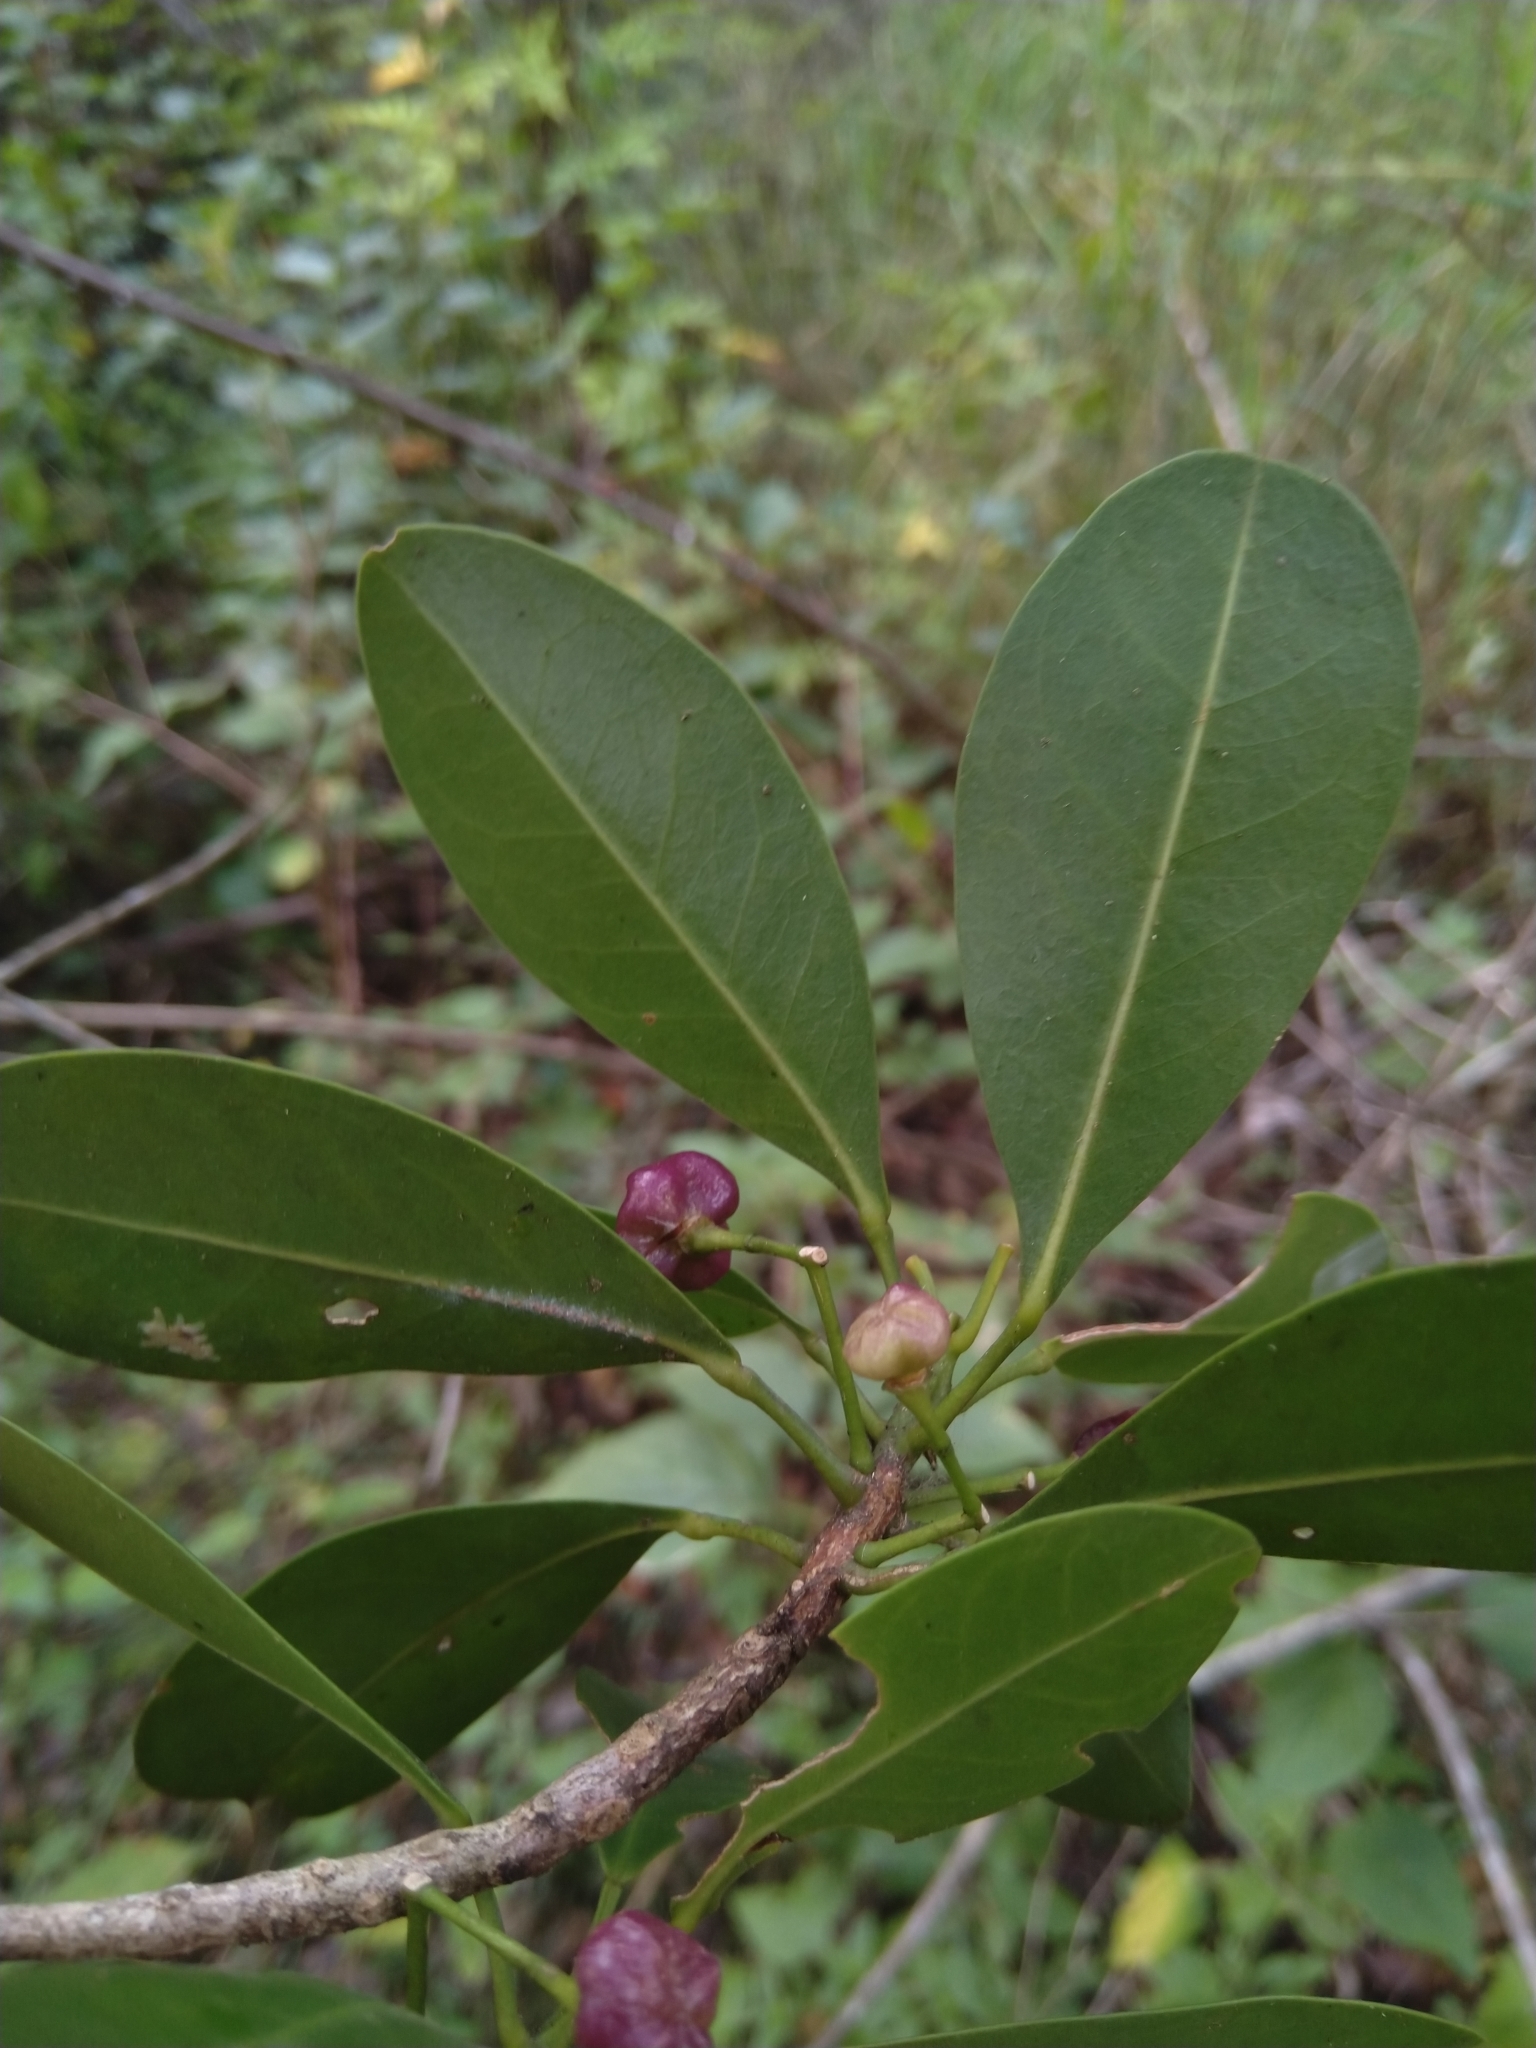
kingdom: Plantae
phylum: Tracheophyta
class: Magnoliopsida
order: Sapindales
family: Rutaceae
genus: Acronychia
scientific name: Acronychia laevis
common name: Hard aspen
